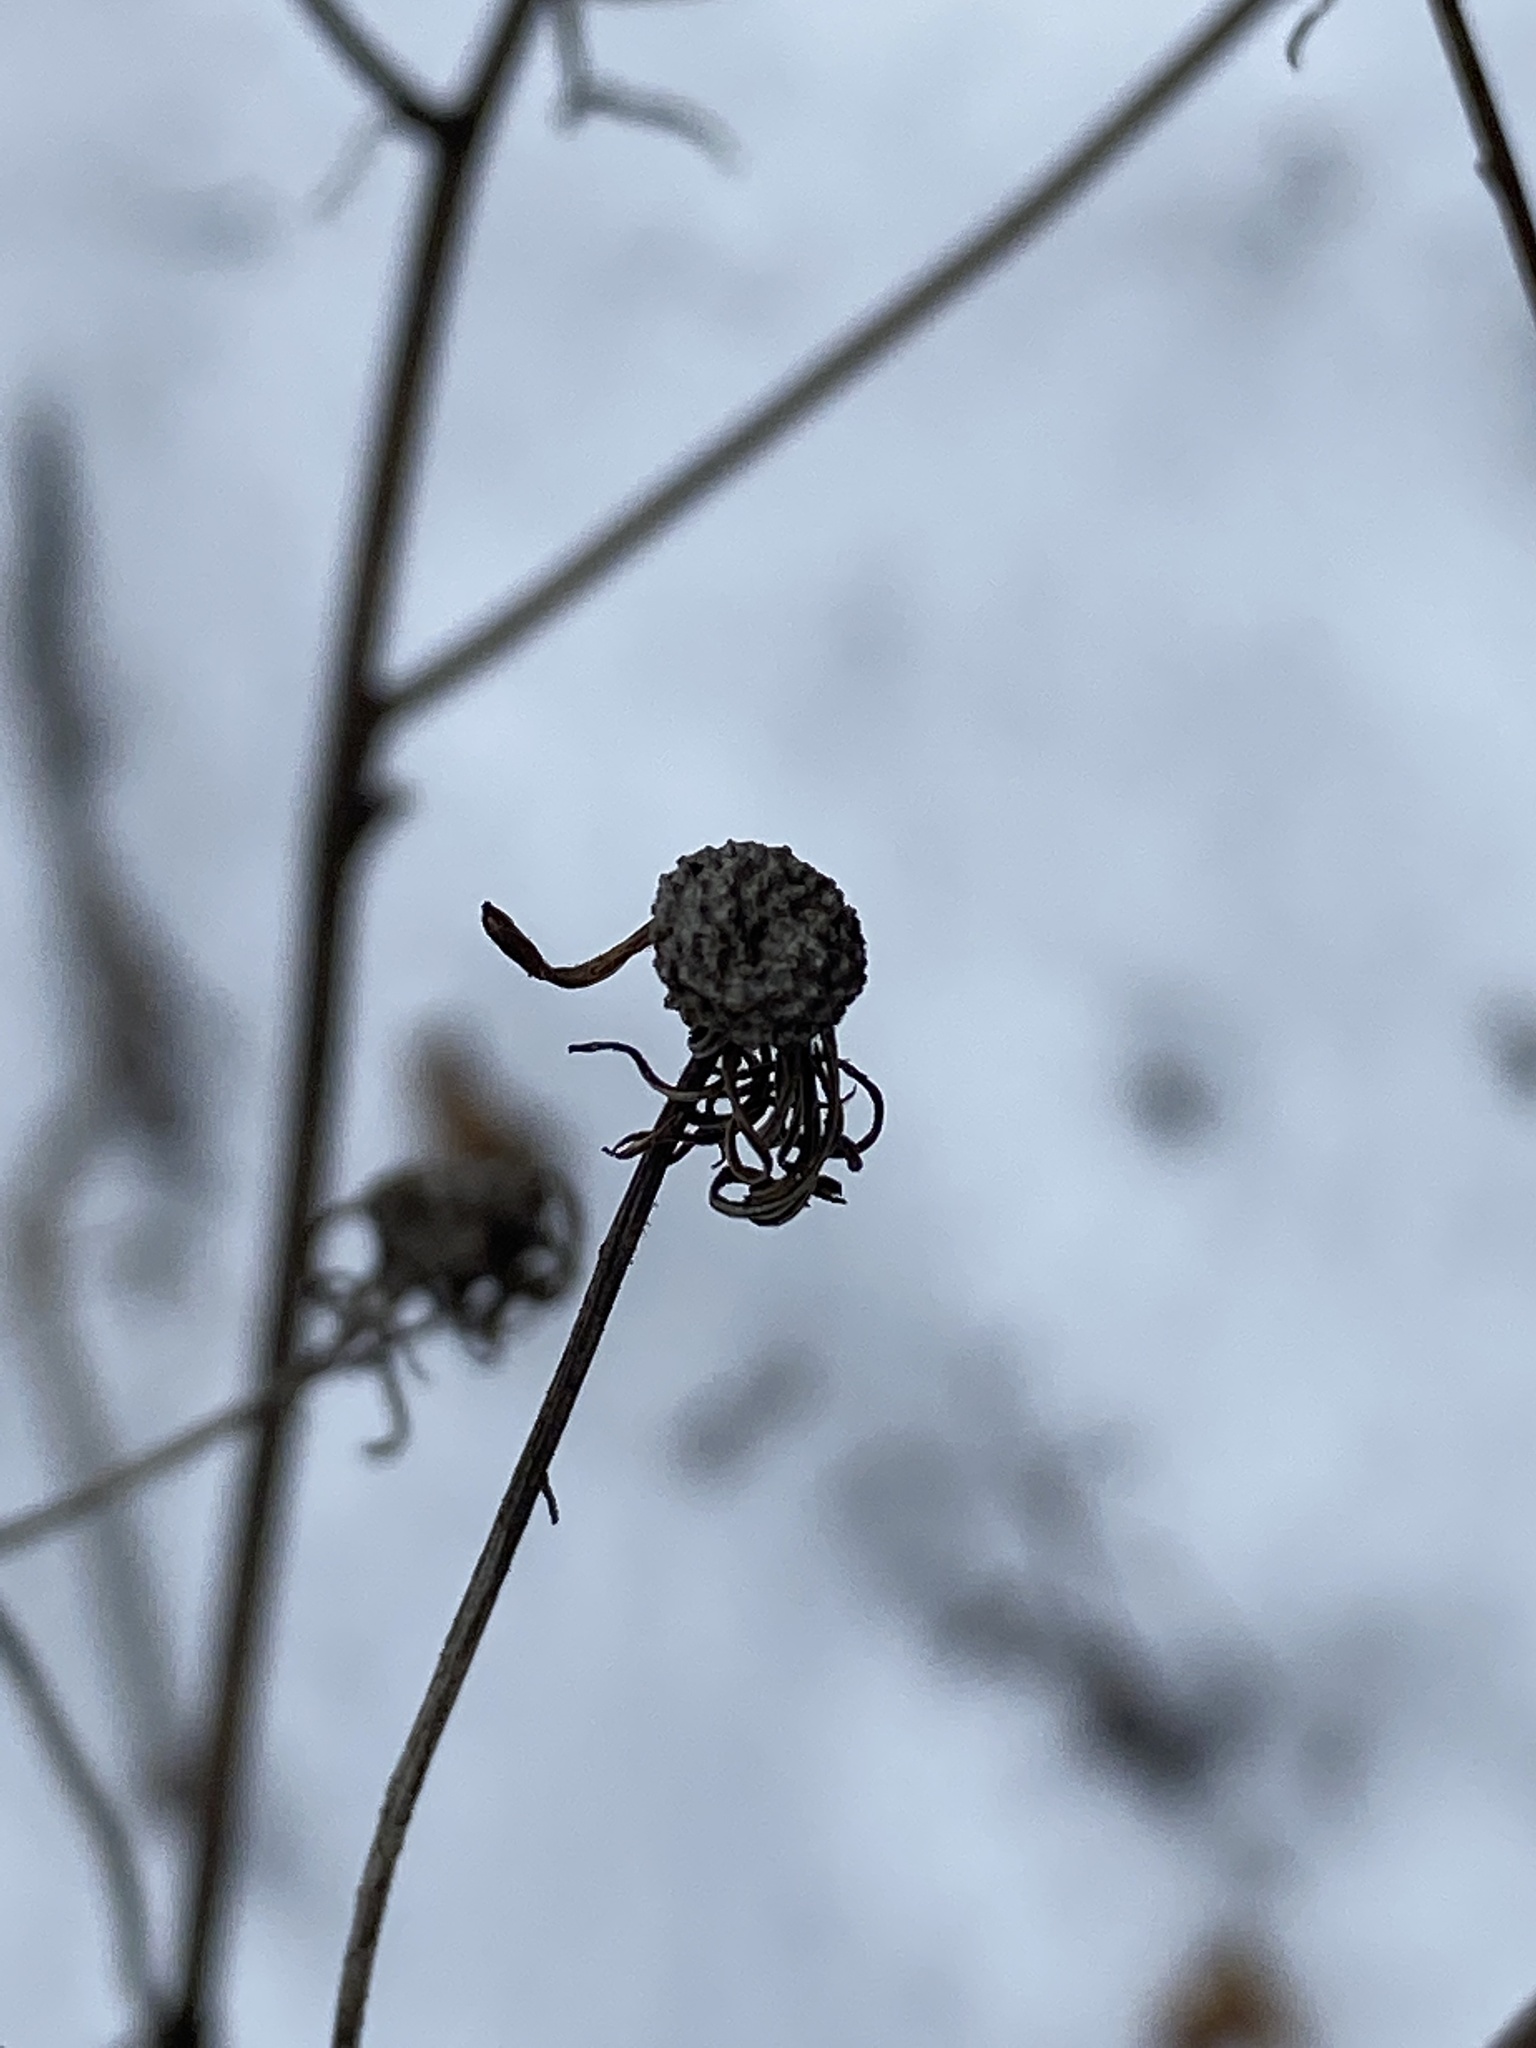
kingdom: Plantae
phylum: Tracheophyta
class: Magnoliopsida
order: Asterales
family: Asteraceae
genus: Erechtites
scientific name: Erechtites hieraciifolius
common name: American burnweed
